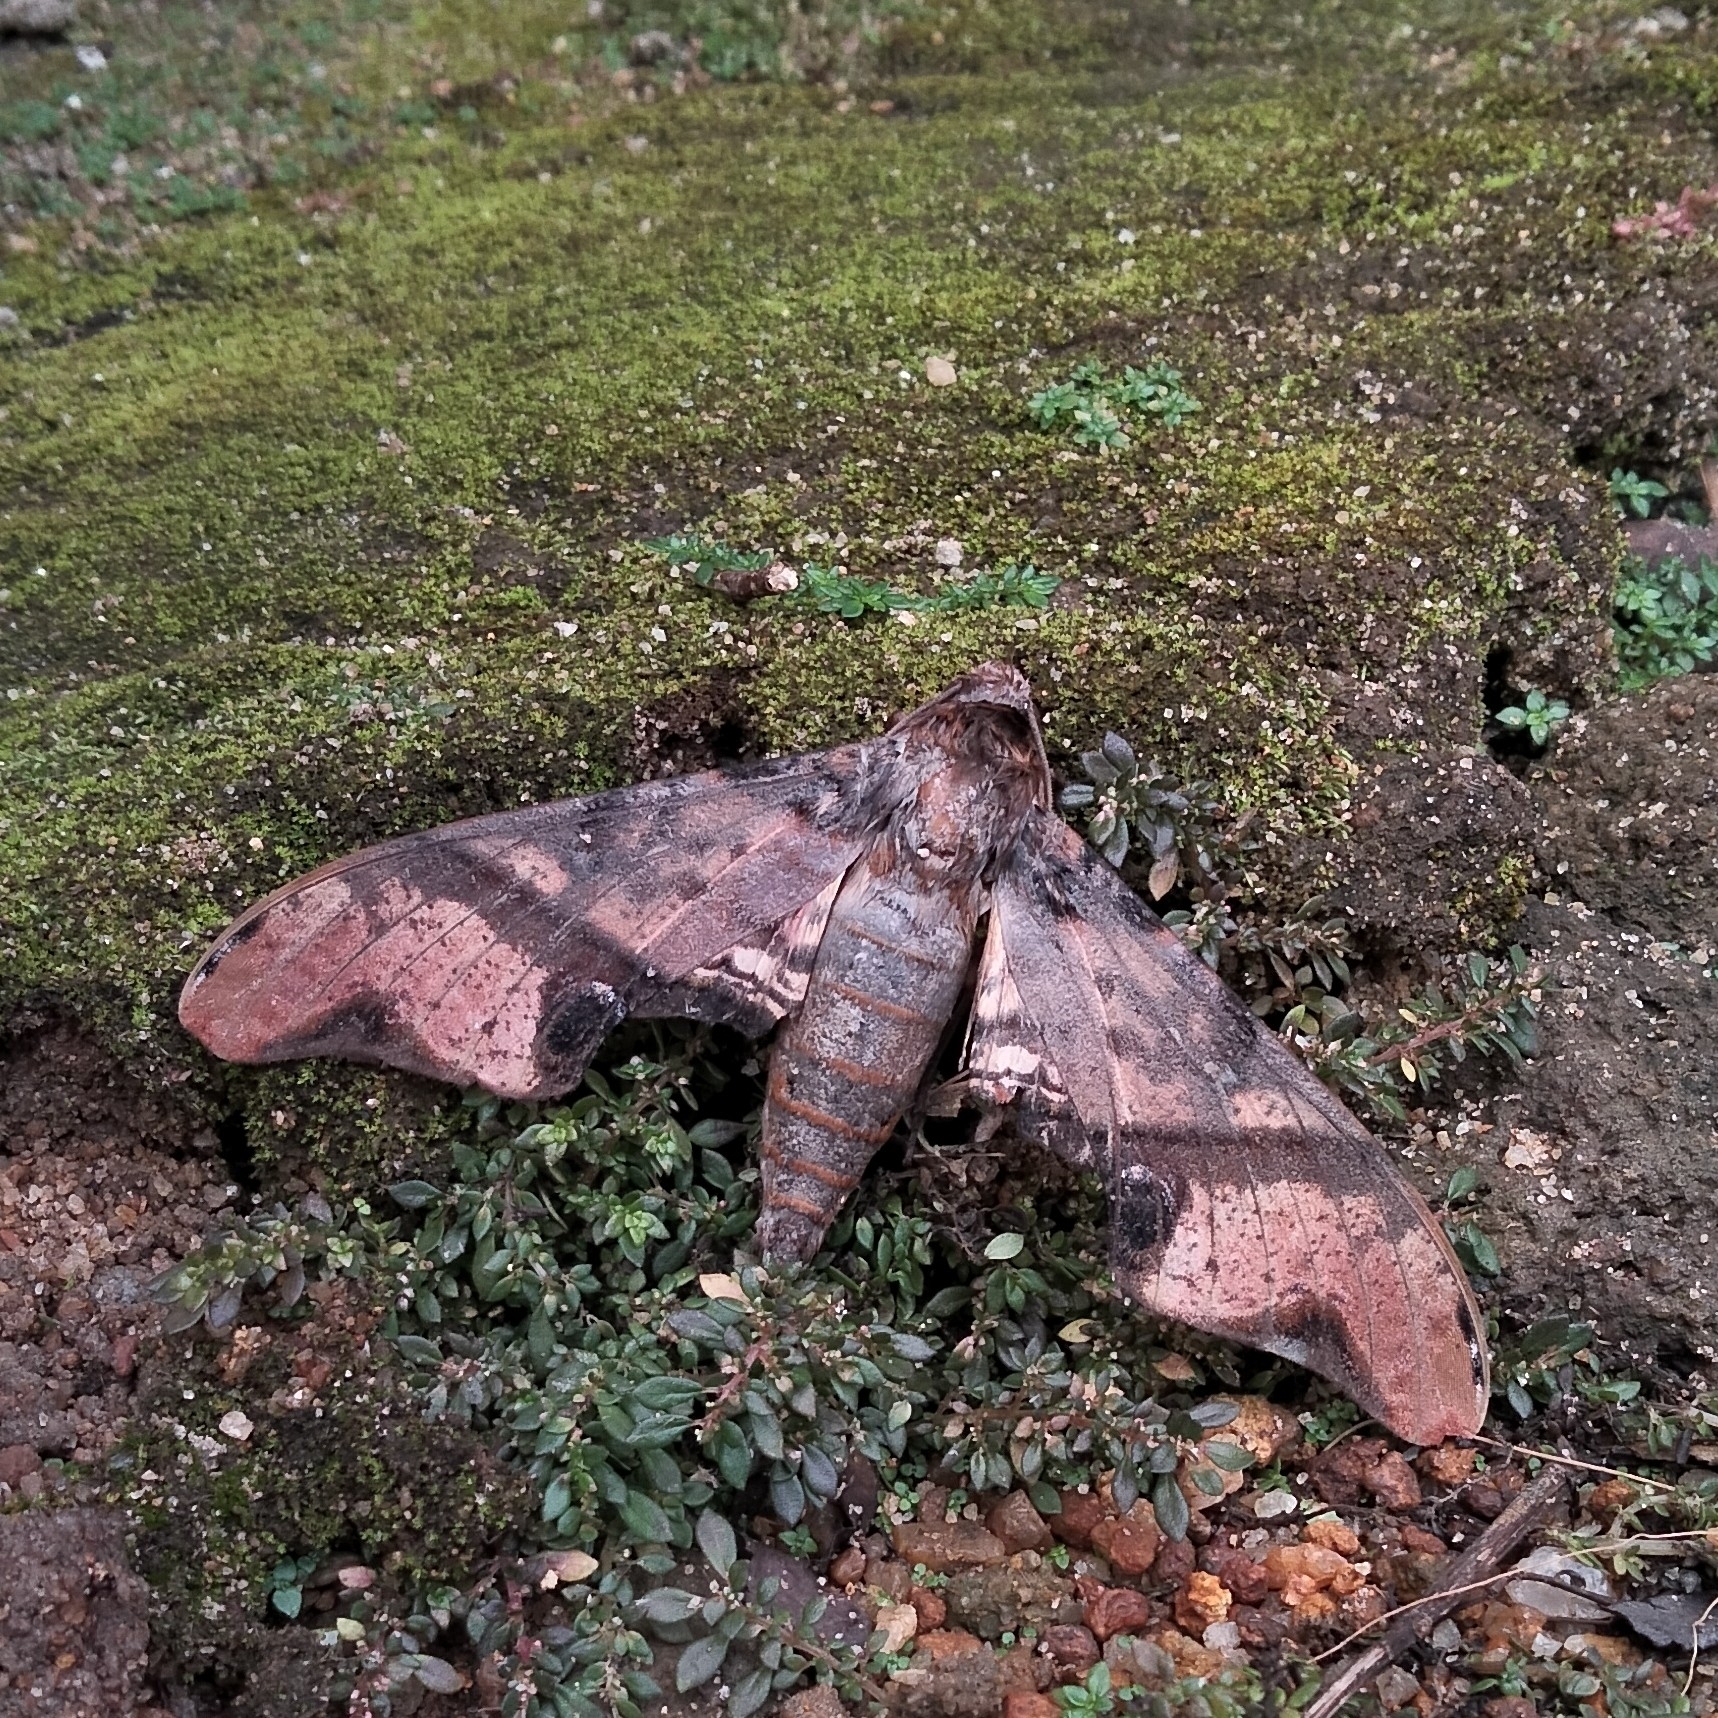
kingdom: Animalia
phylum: Arthropoda
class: Insecta
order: Lepidoptera
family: Sphingidae
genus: Amplypterus
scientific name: Amplypterus panopus
